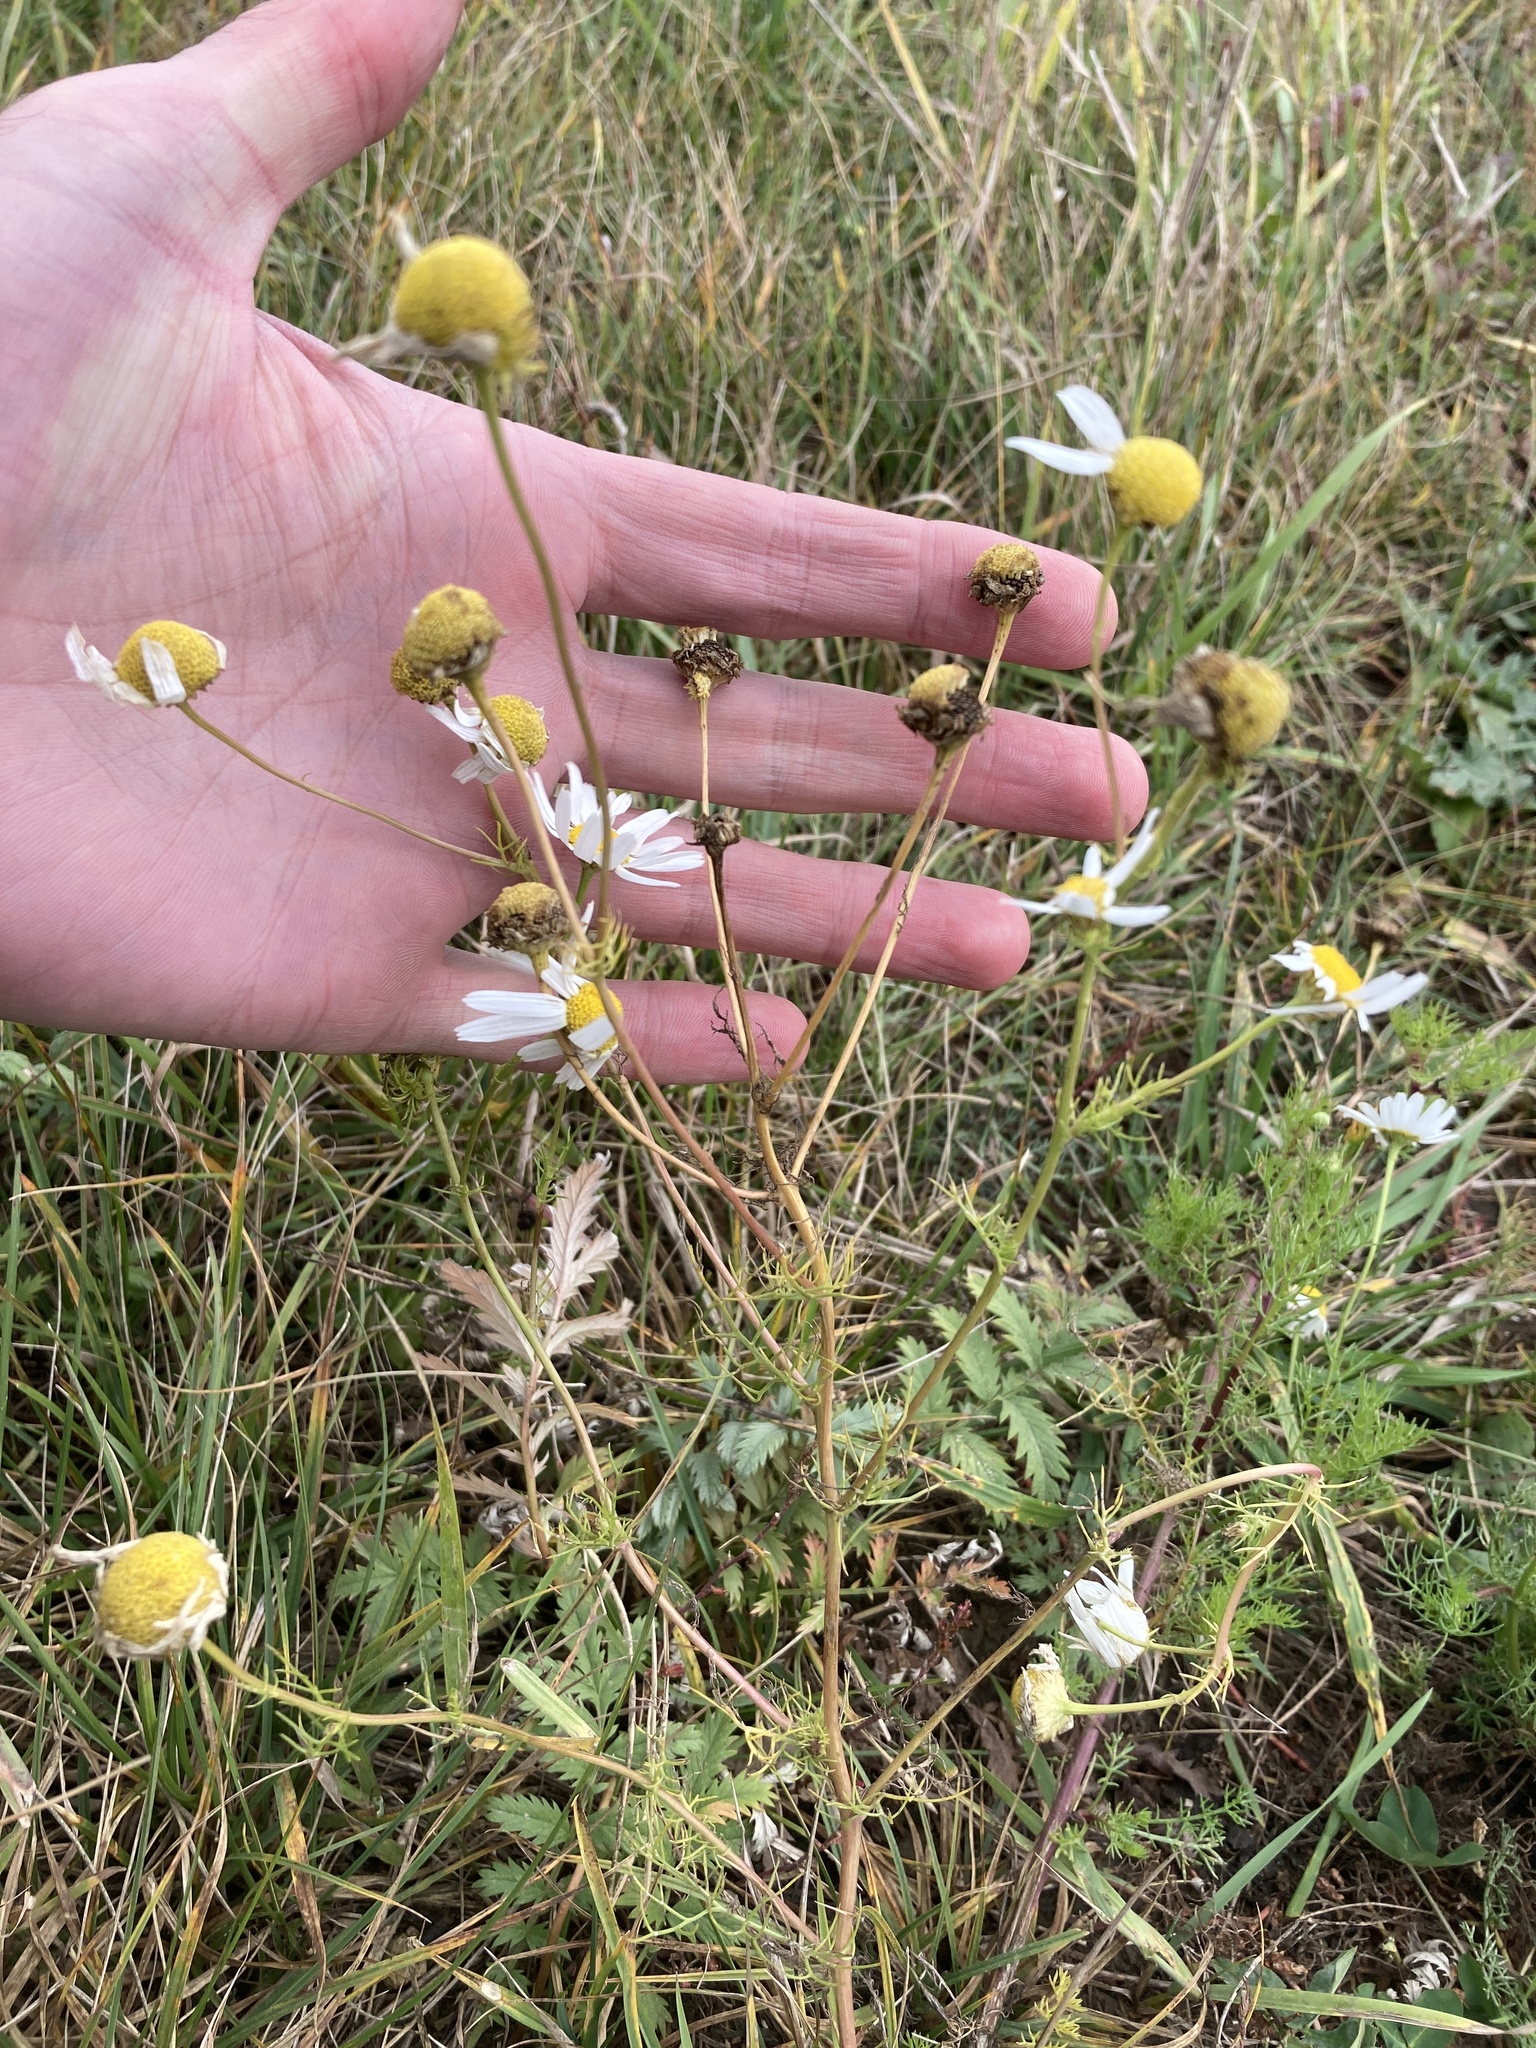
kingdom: Plantae
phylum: Tracheophyta
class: Magnoliopsida
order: Asterales
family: Asteraceae
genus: Tripleurospermum
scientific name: Tripleurospermum inodorum
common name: Scentless mayweed
